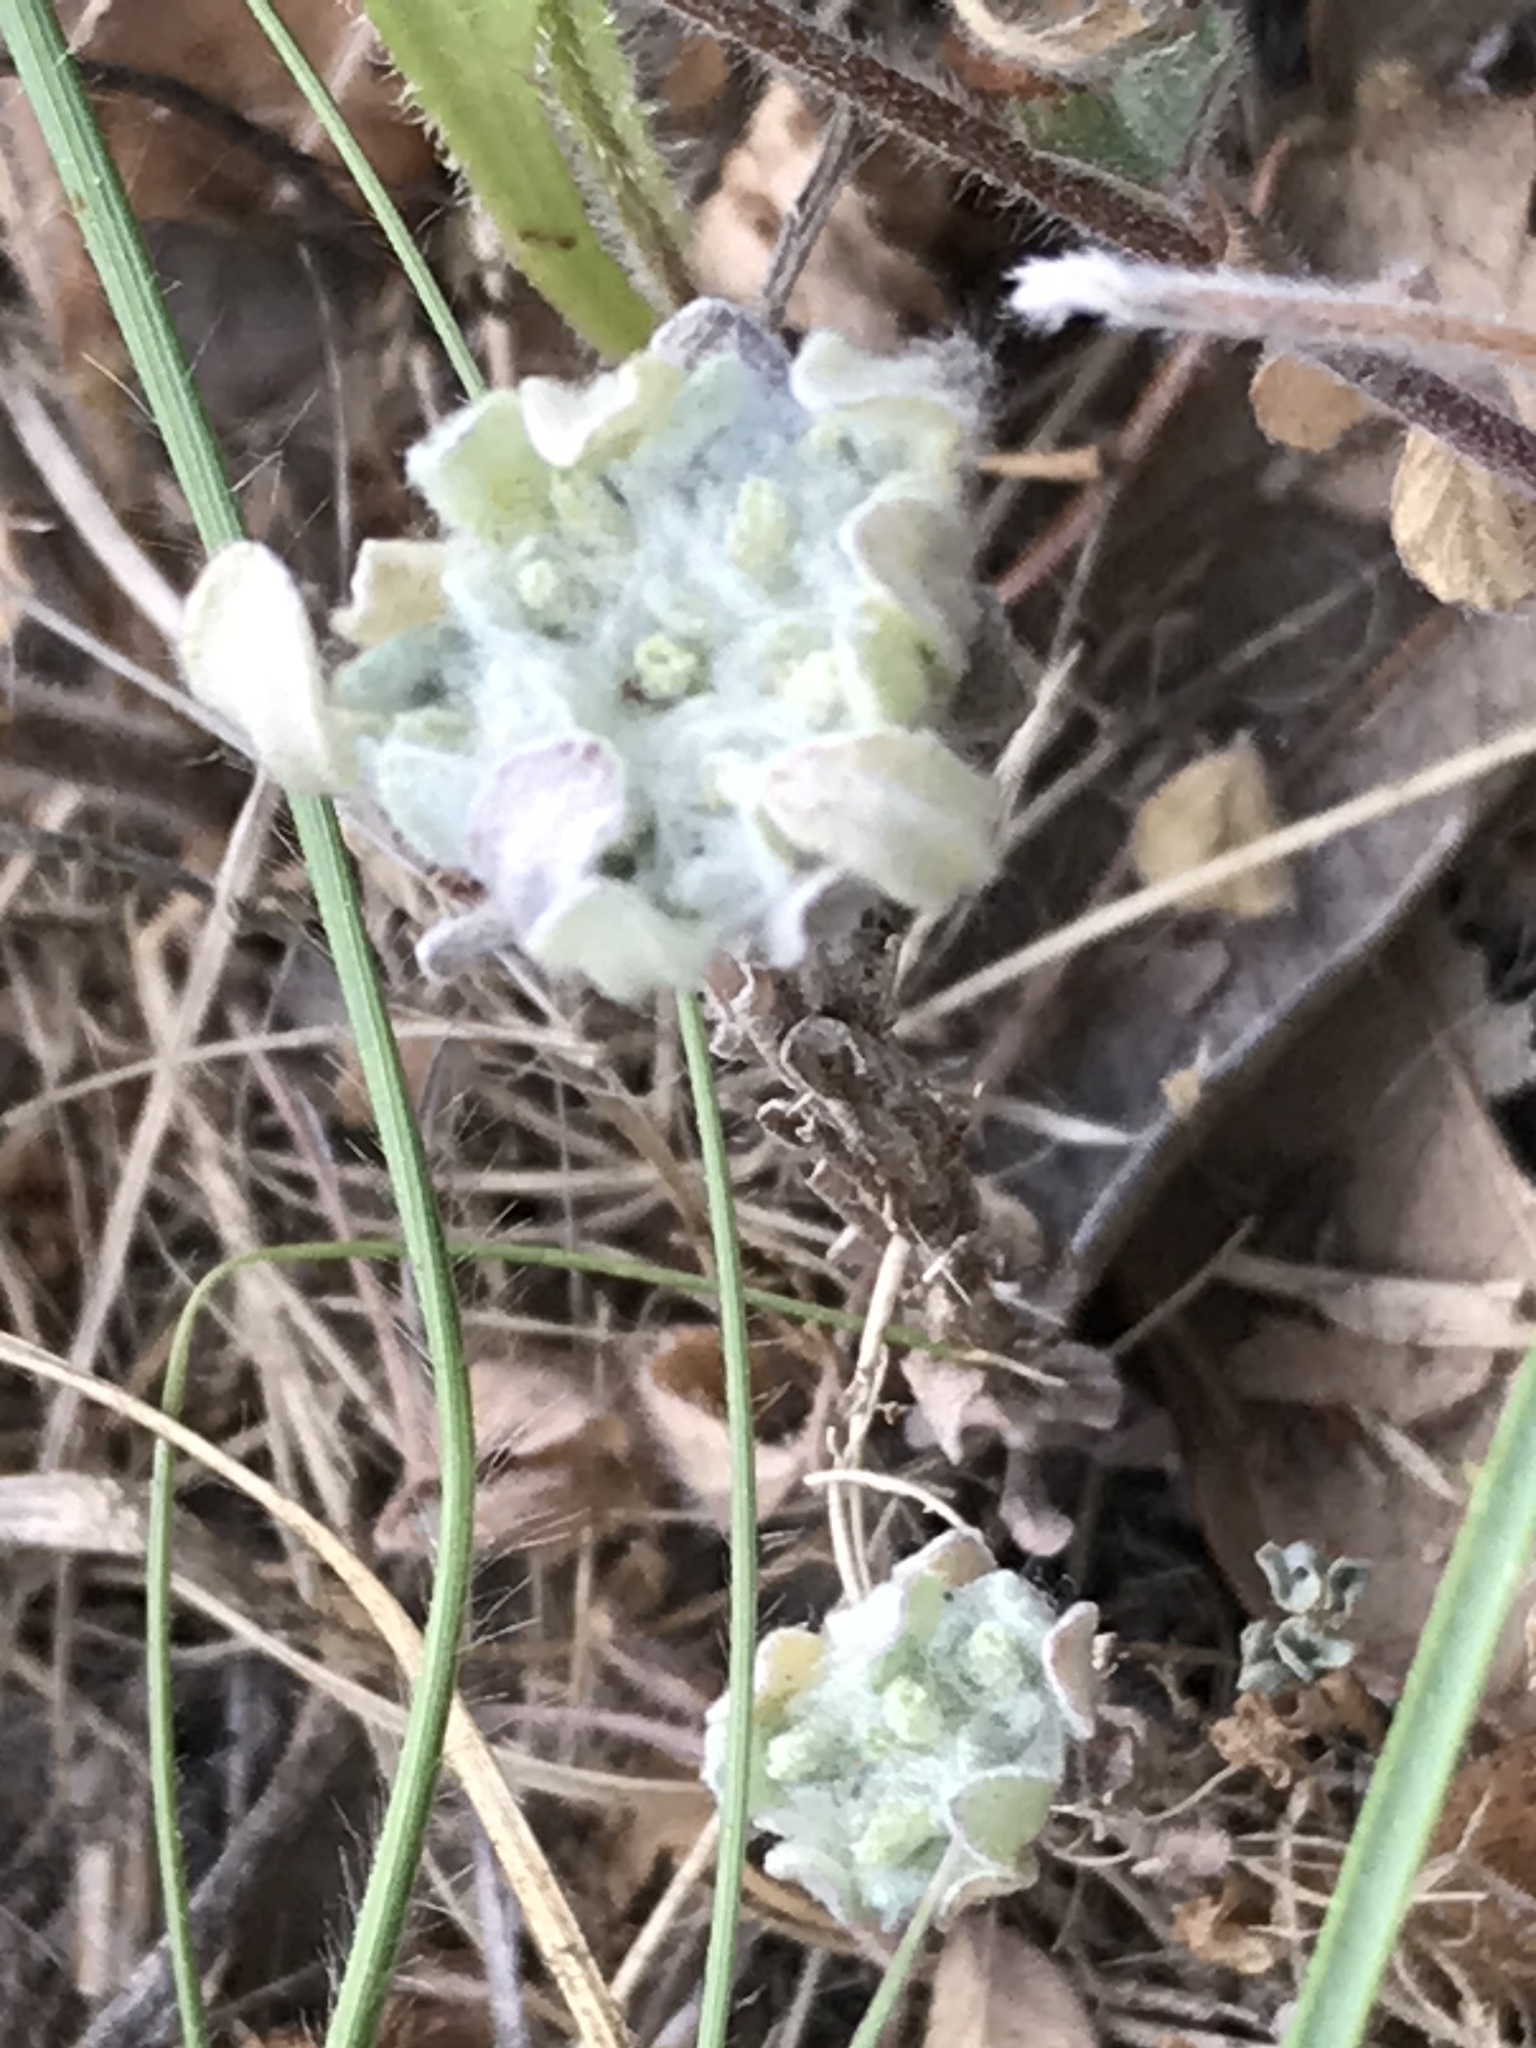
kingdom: Plantae
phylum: Tracheophyta
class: Magnoliopsida
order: Asterales
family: Asteraceae
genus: Diaperia
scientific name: Diaperia prolifera
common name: Big-head rabbit-tobacco
